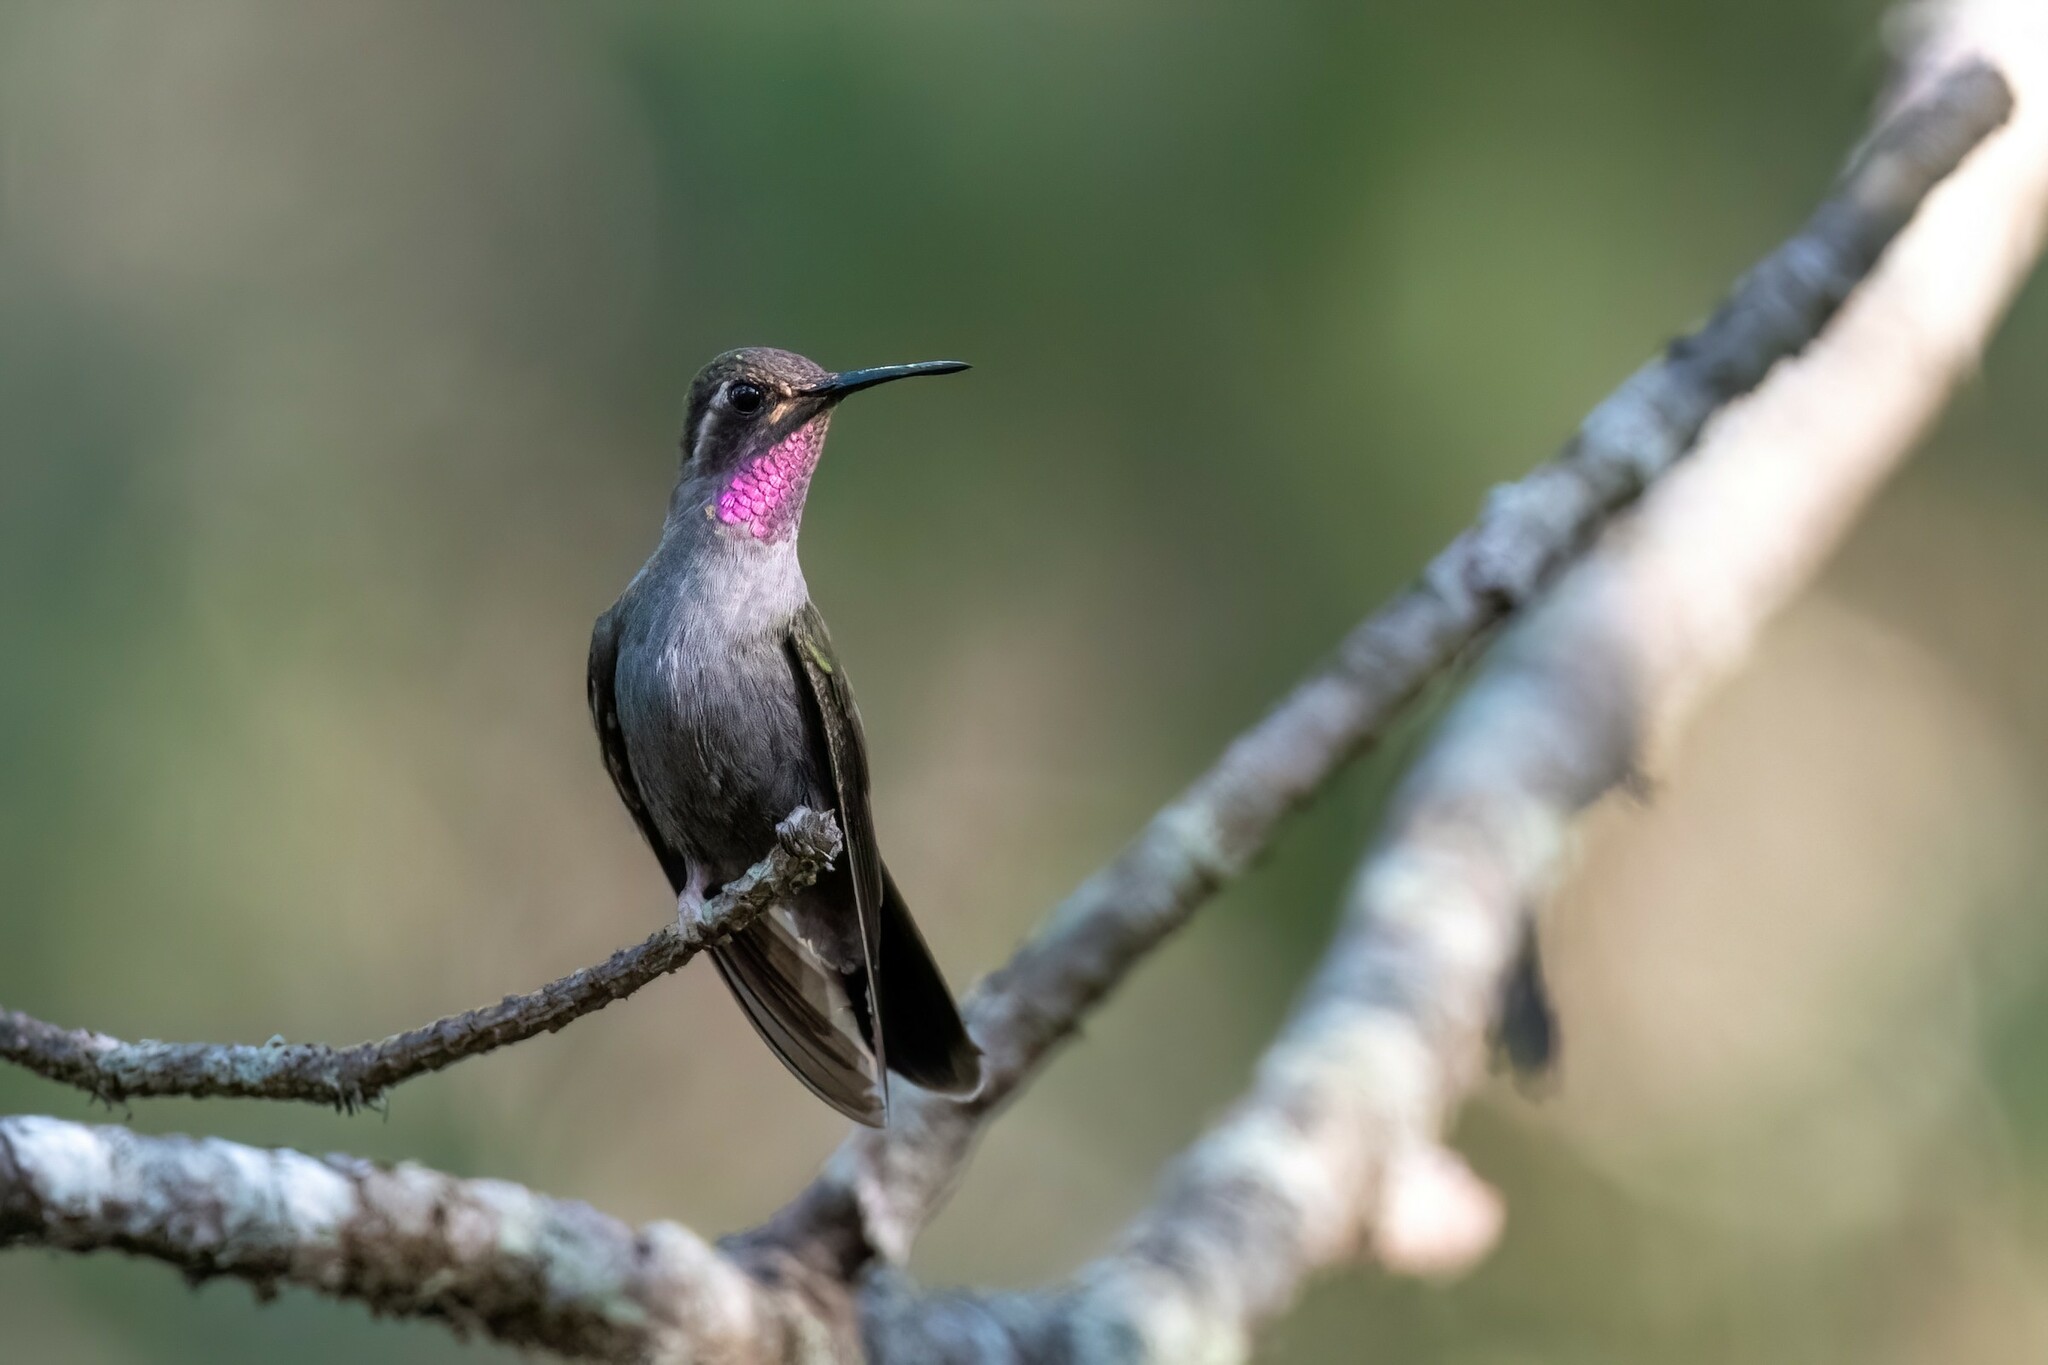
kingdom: Animalia
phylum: Chordata
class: Aves
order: Apodiformes
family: Trochilidae
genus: Lampornis
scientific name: Lampornis amethystinus
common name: Amethyst-throated mountaingem
